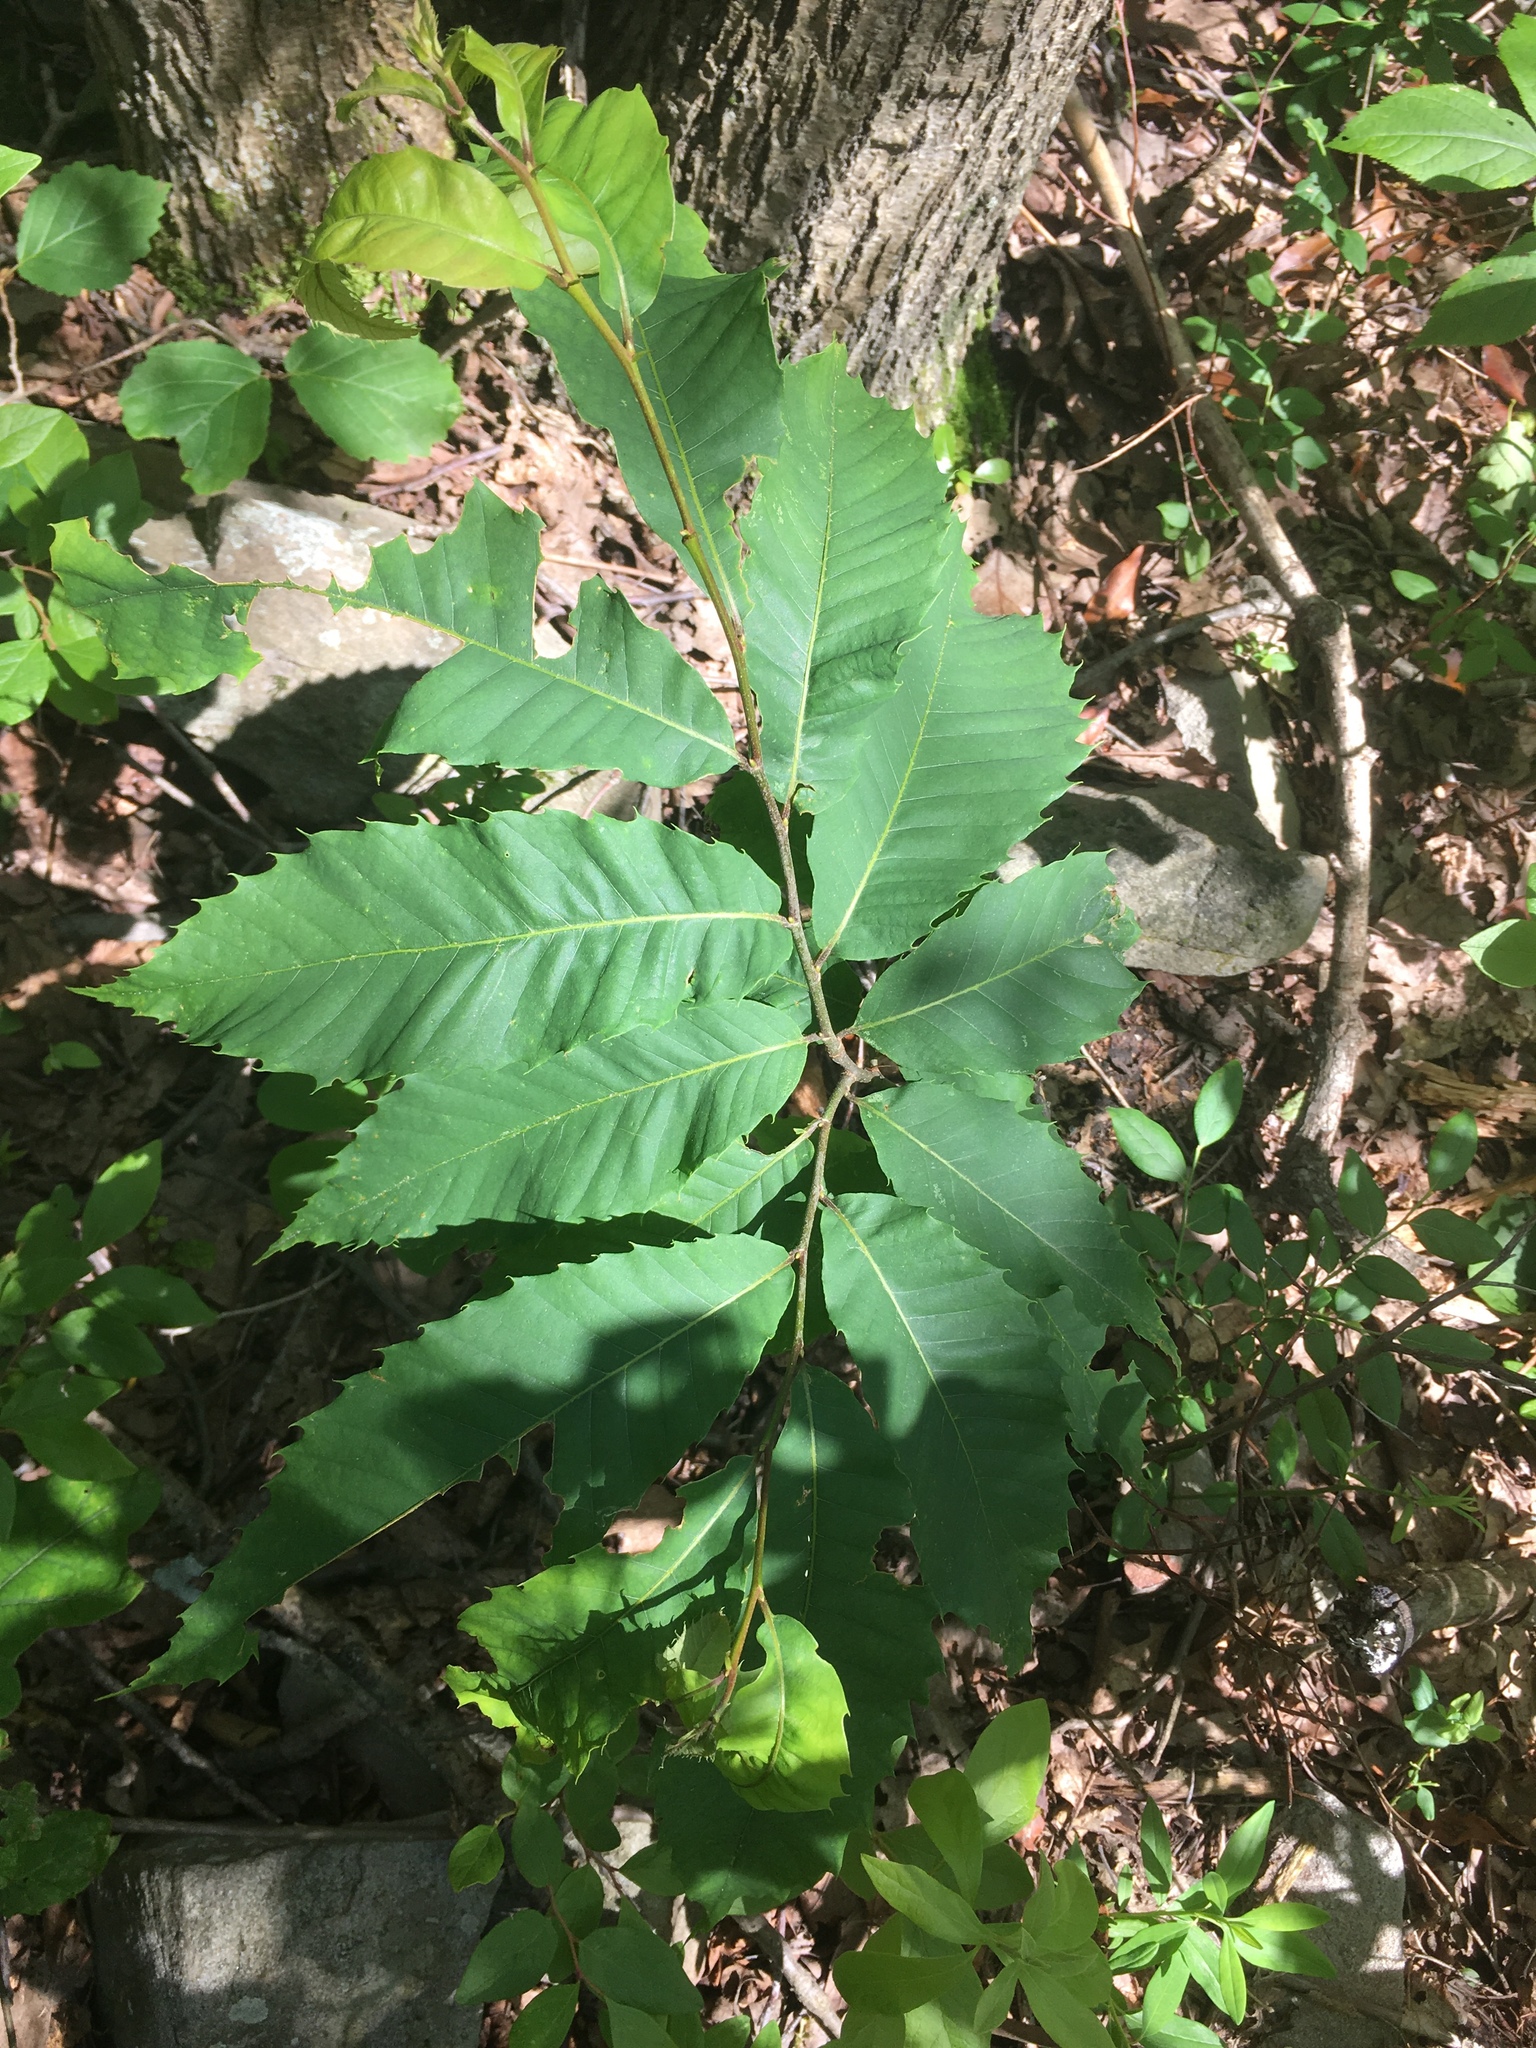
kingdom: Plantae
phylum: Tracheophyta
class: Magnoliopsida
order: Fagales
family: Fagaceae
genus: Castanea
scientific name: Castanea dentata
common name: American chestnut
